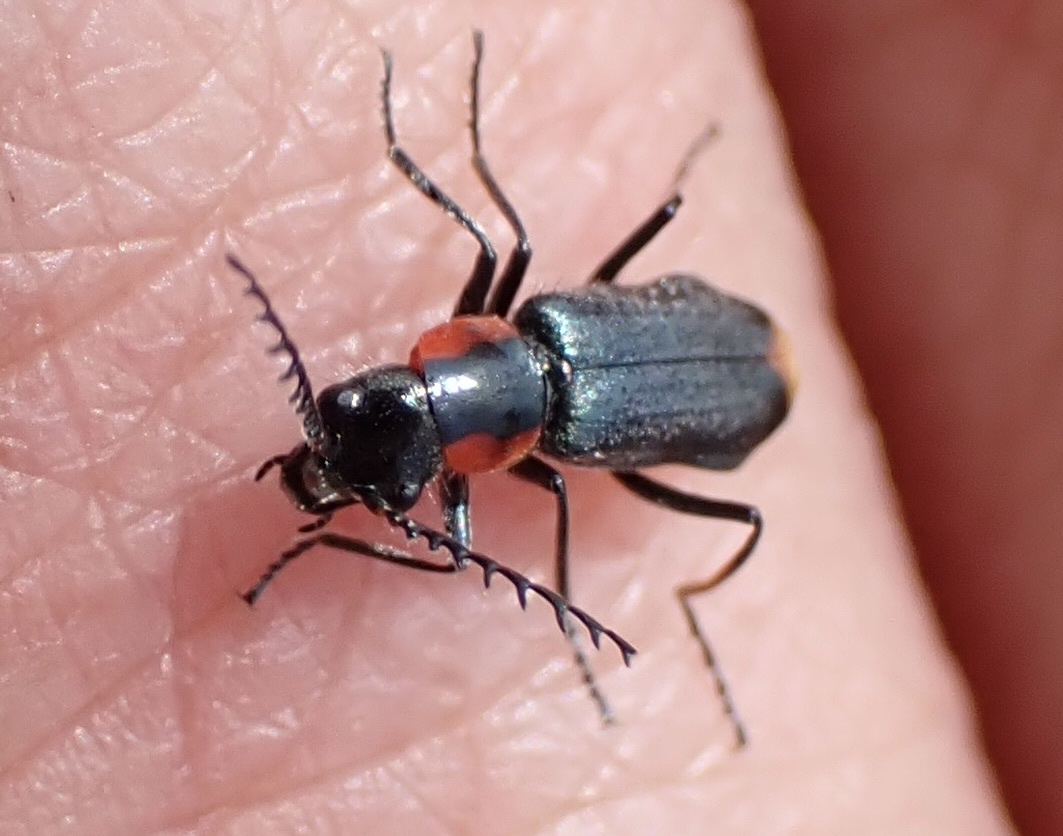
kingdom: Animalia
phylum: Arthropoda
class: Insecta
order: Coleoptera
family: Melyridae
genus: Malachius
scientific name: Malachius
